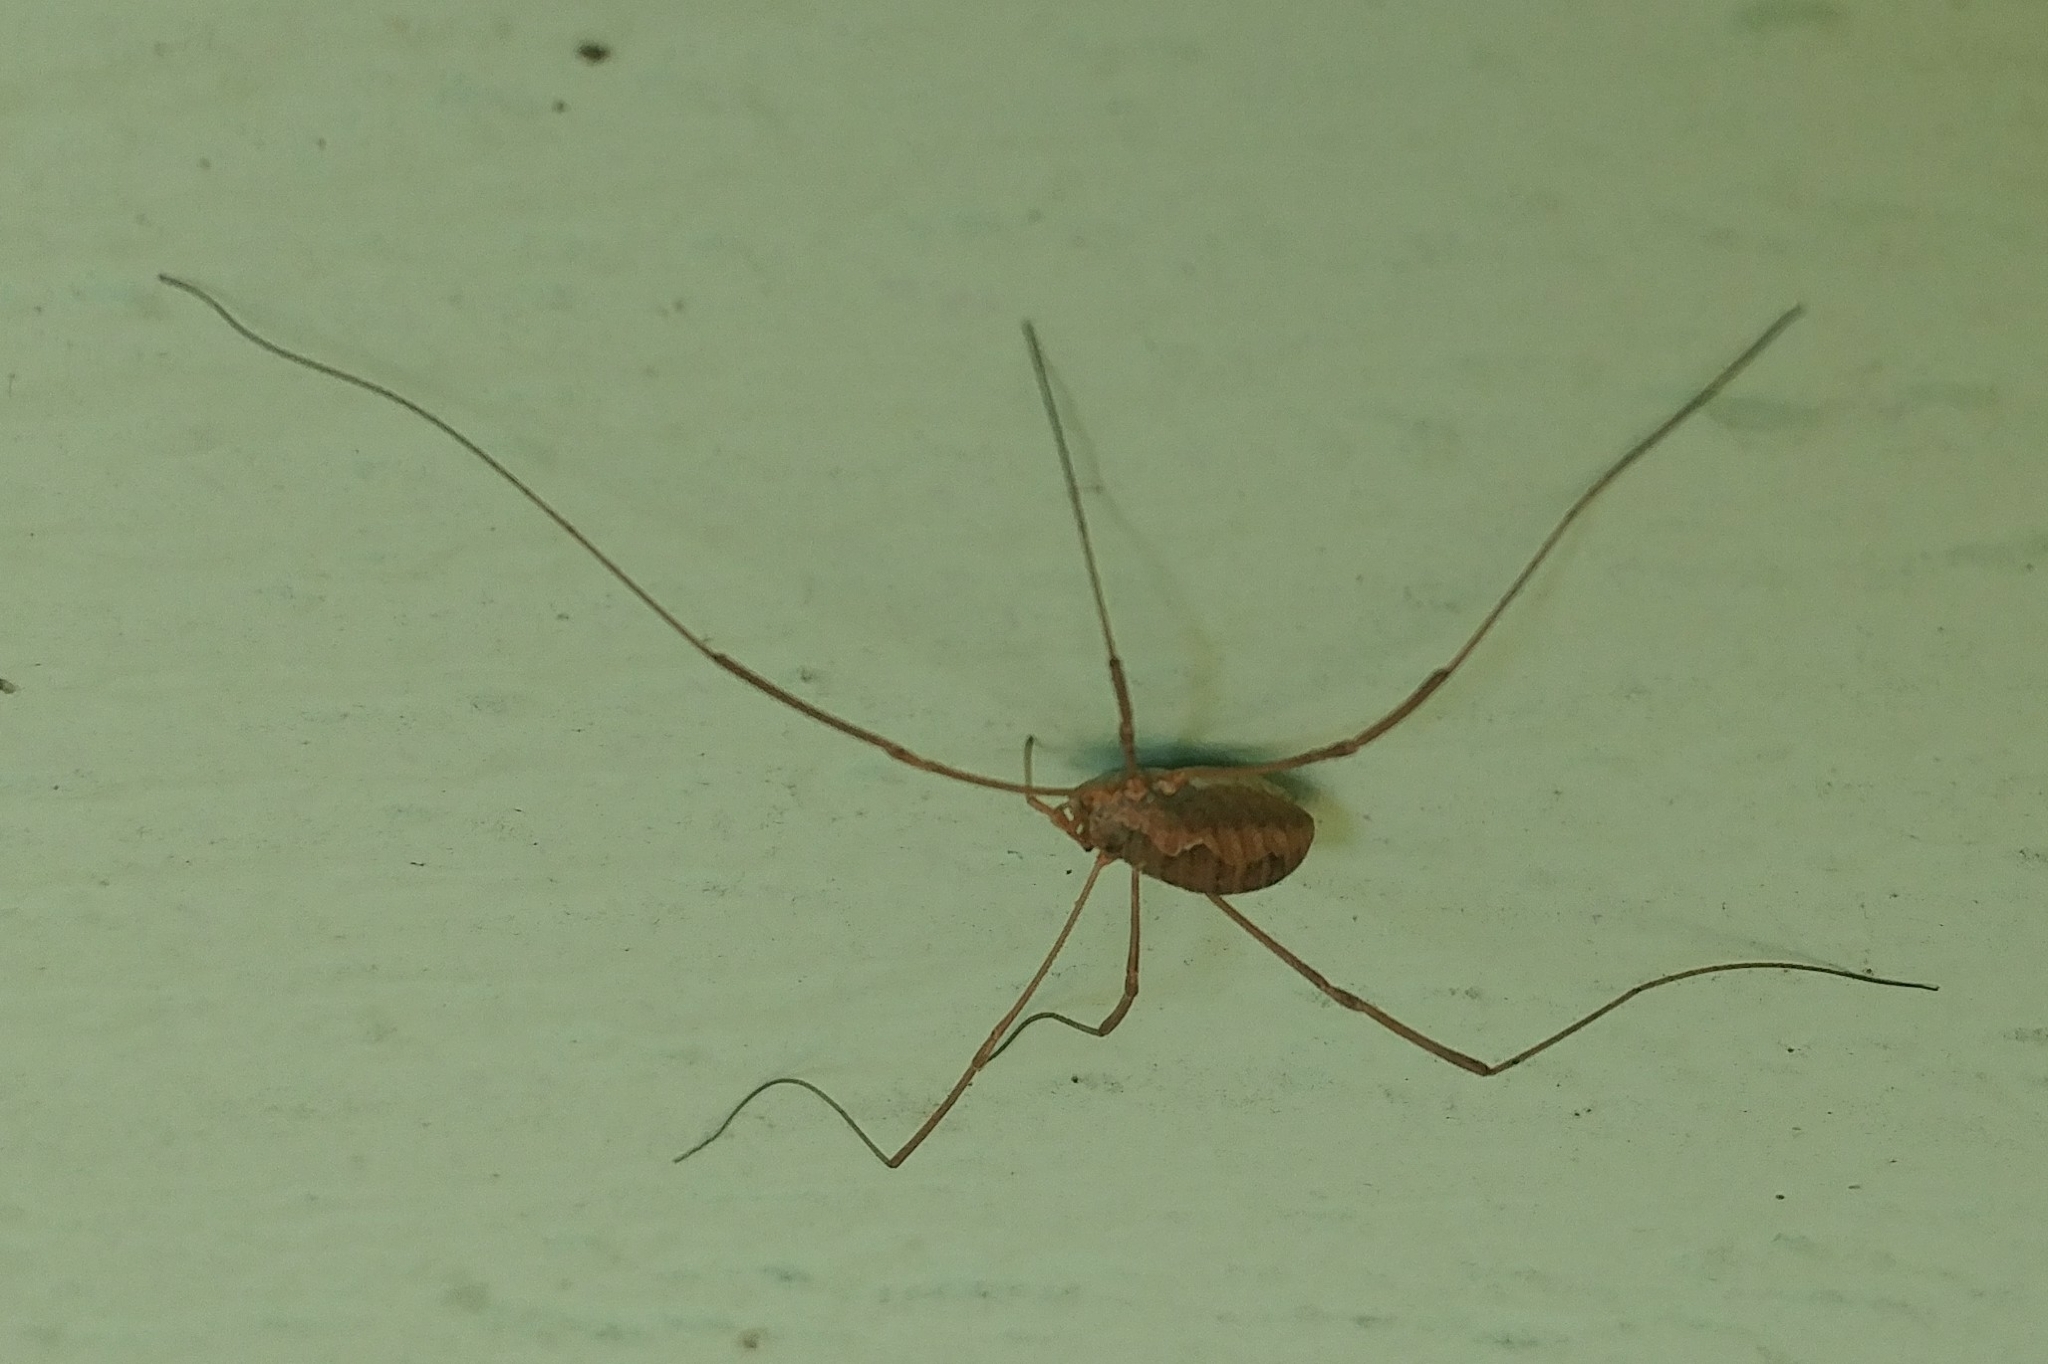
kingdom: Animalia
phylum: Arthropoda
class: Arachnida
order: Opiliones
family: Phalangiidae
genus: Phalangium
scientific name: Phalangium opilio
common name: Daddy longleg
